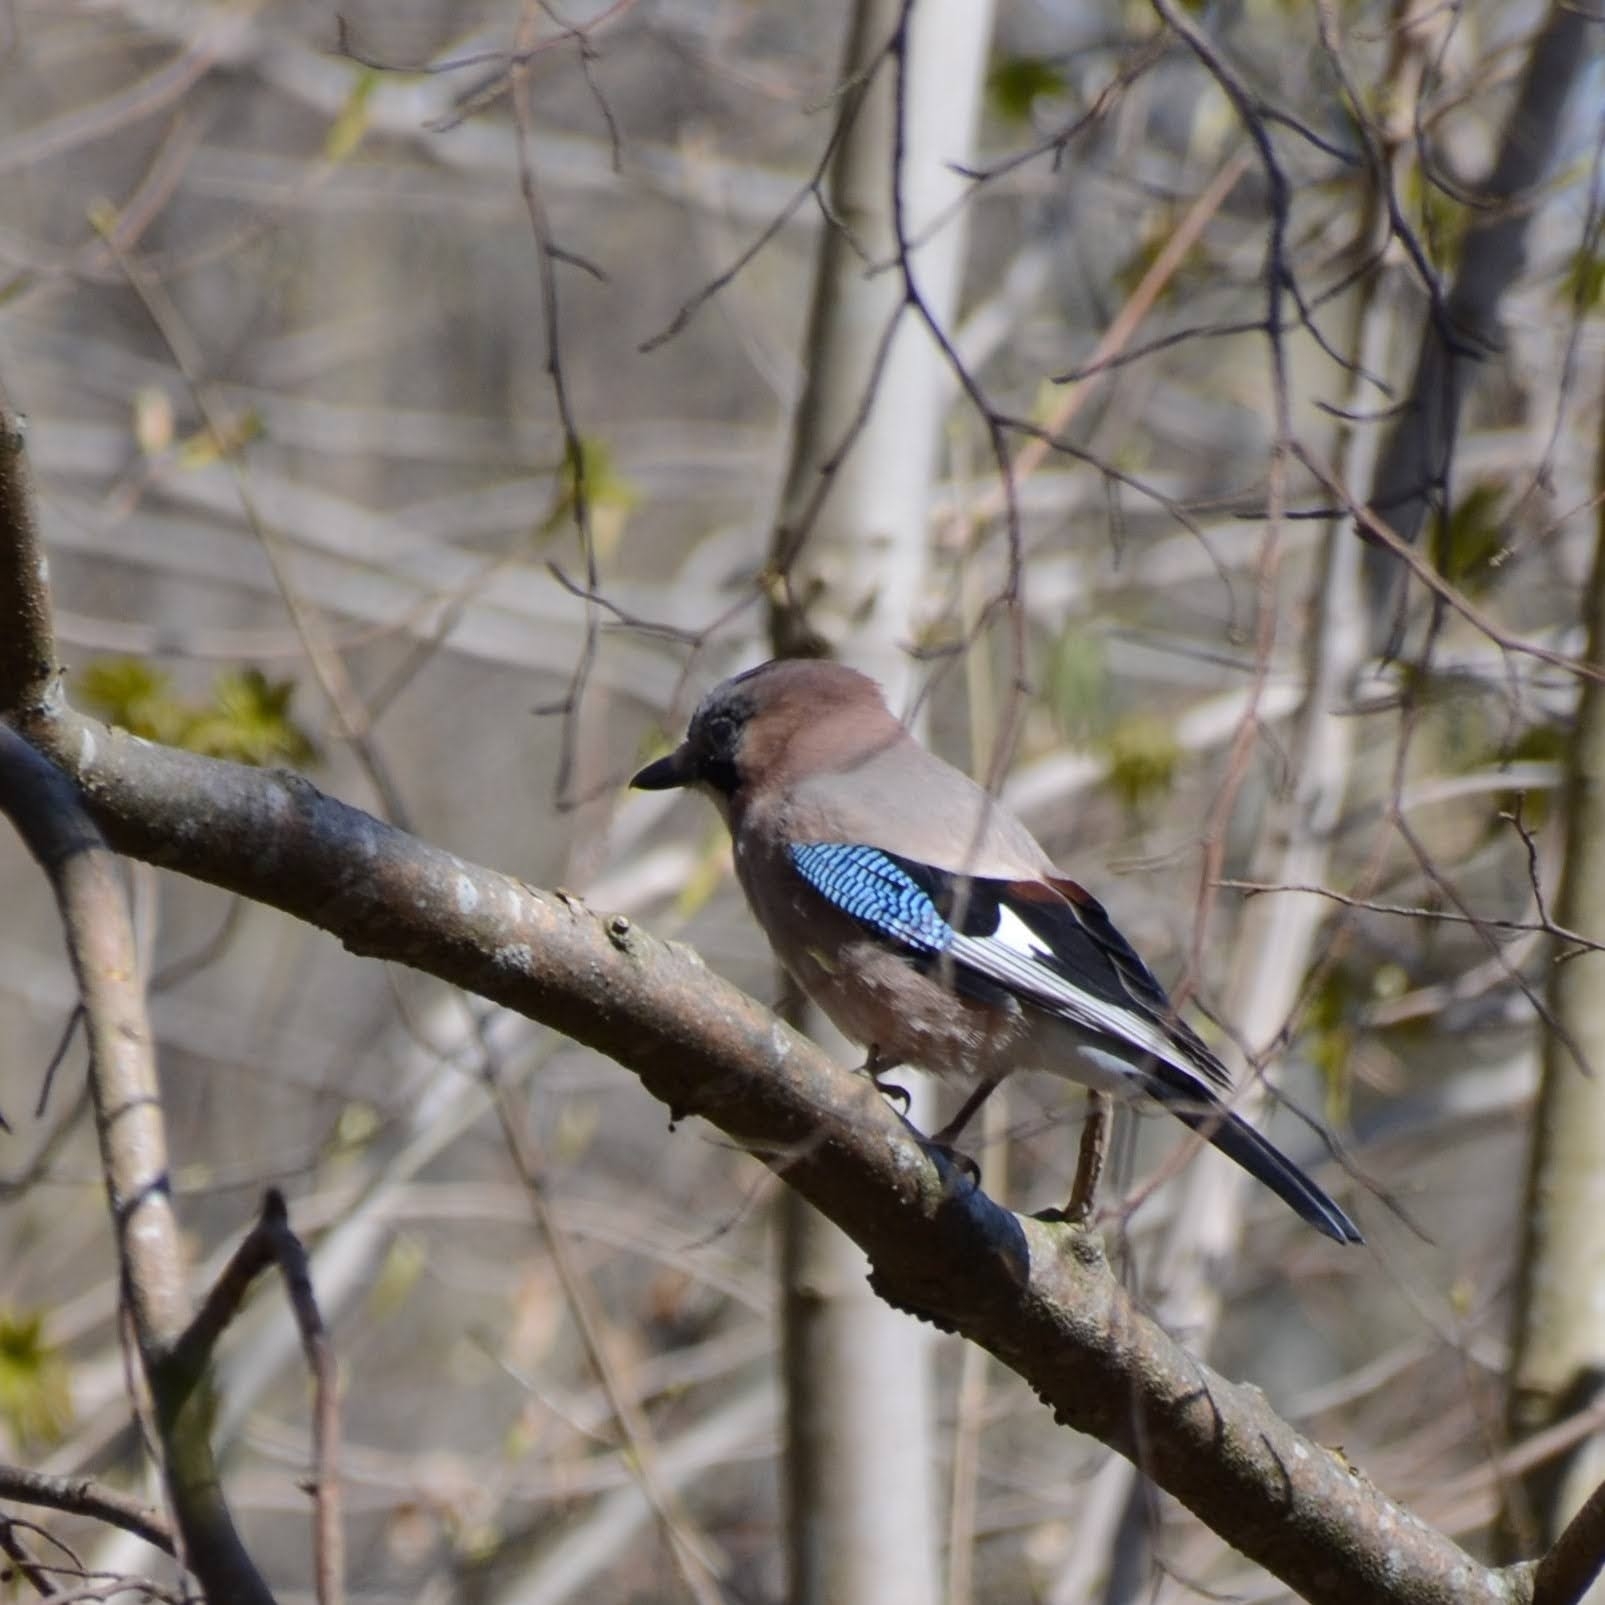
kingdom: Animalia
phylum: Chordata
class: Aves
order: Passeriformes
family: Corvidae
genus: Garrulus
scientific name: Garrulus glandarius
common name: Eurasian jay
